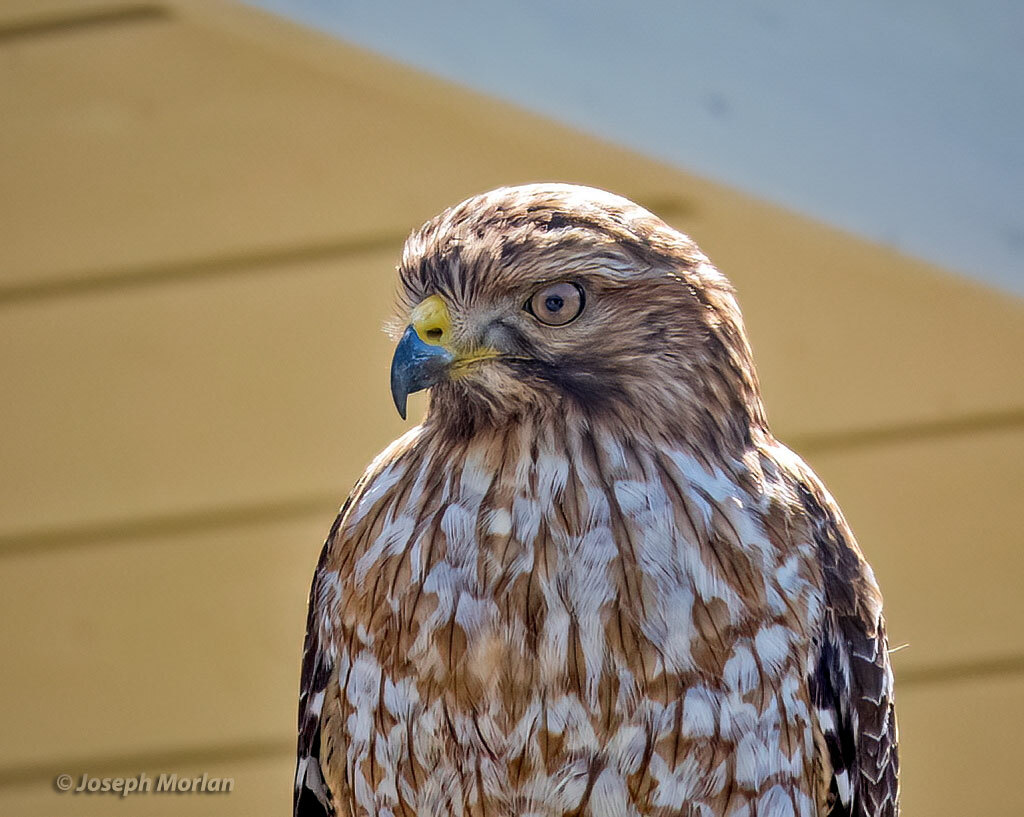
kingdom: Animalia
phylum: Chordata
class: Aves
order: Accipitriformes
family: Accipitridae
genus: Buteo
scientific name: Buteo lineatus
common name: Red-shouldered hawk
